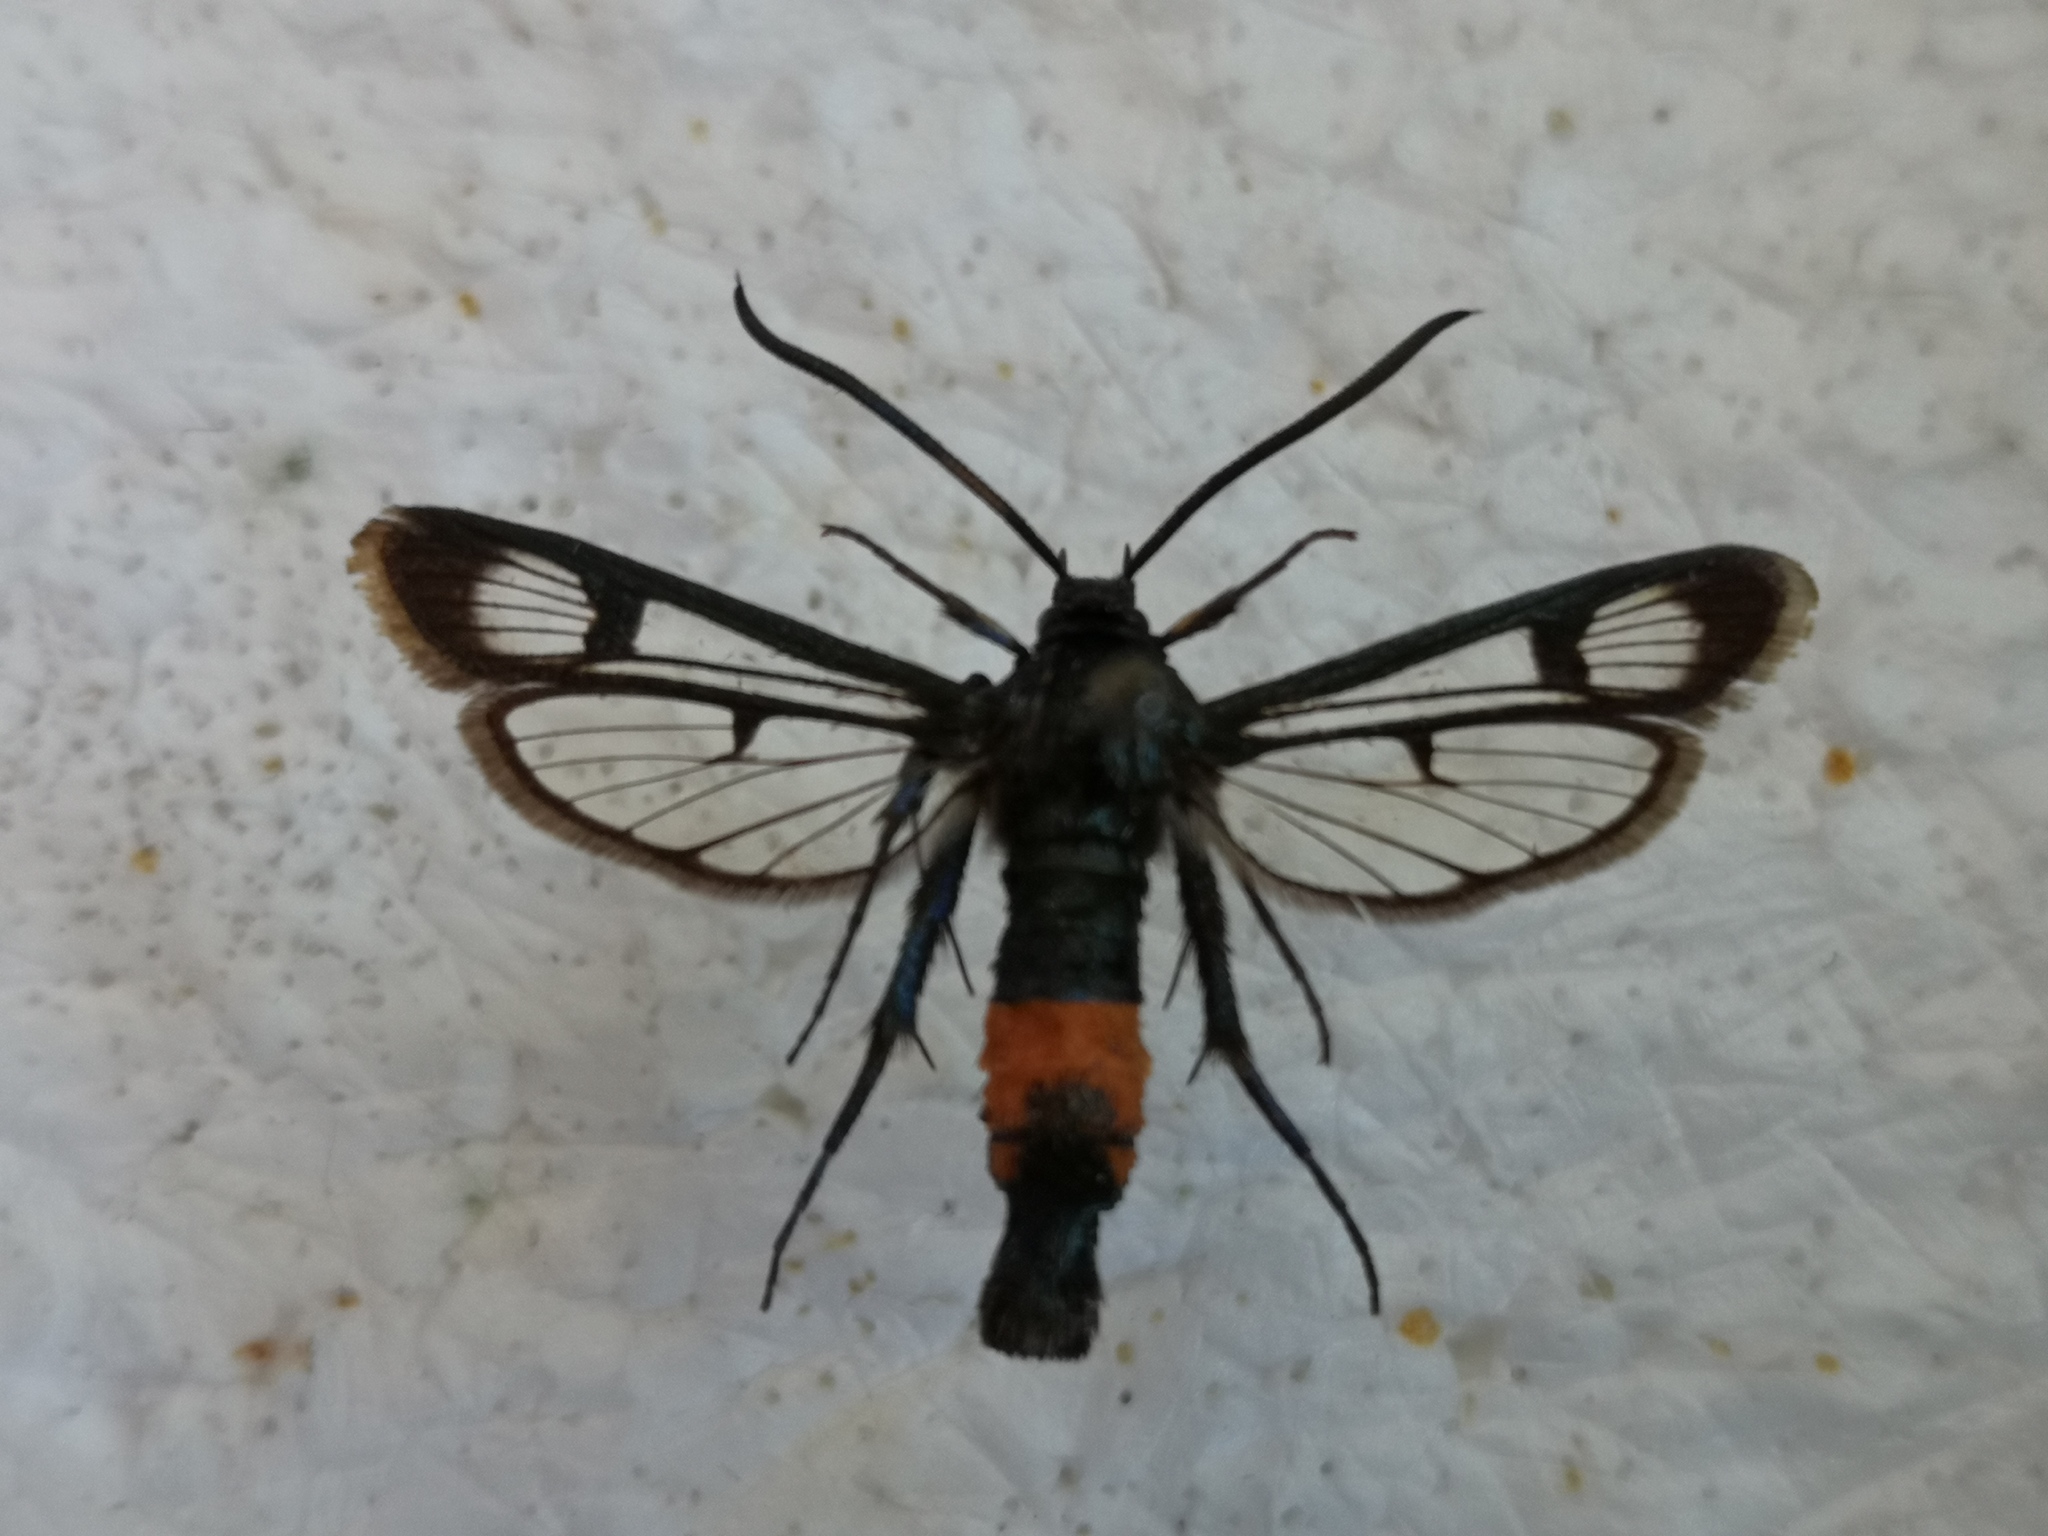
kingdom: Animalia
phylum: Arthropoda
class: Insecta
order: Lepidoptera
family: Sesiidae
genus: Synanthedon
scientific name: Synanthedon stomoxiformis
